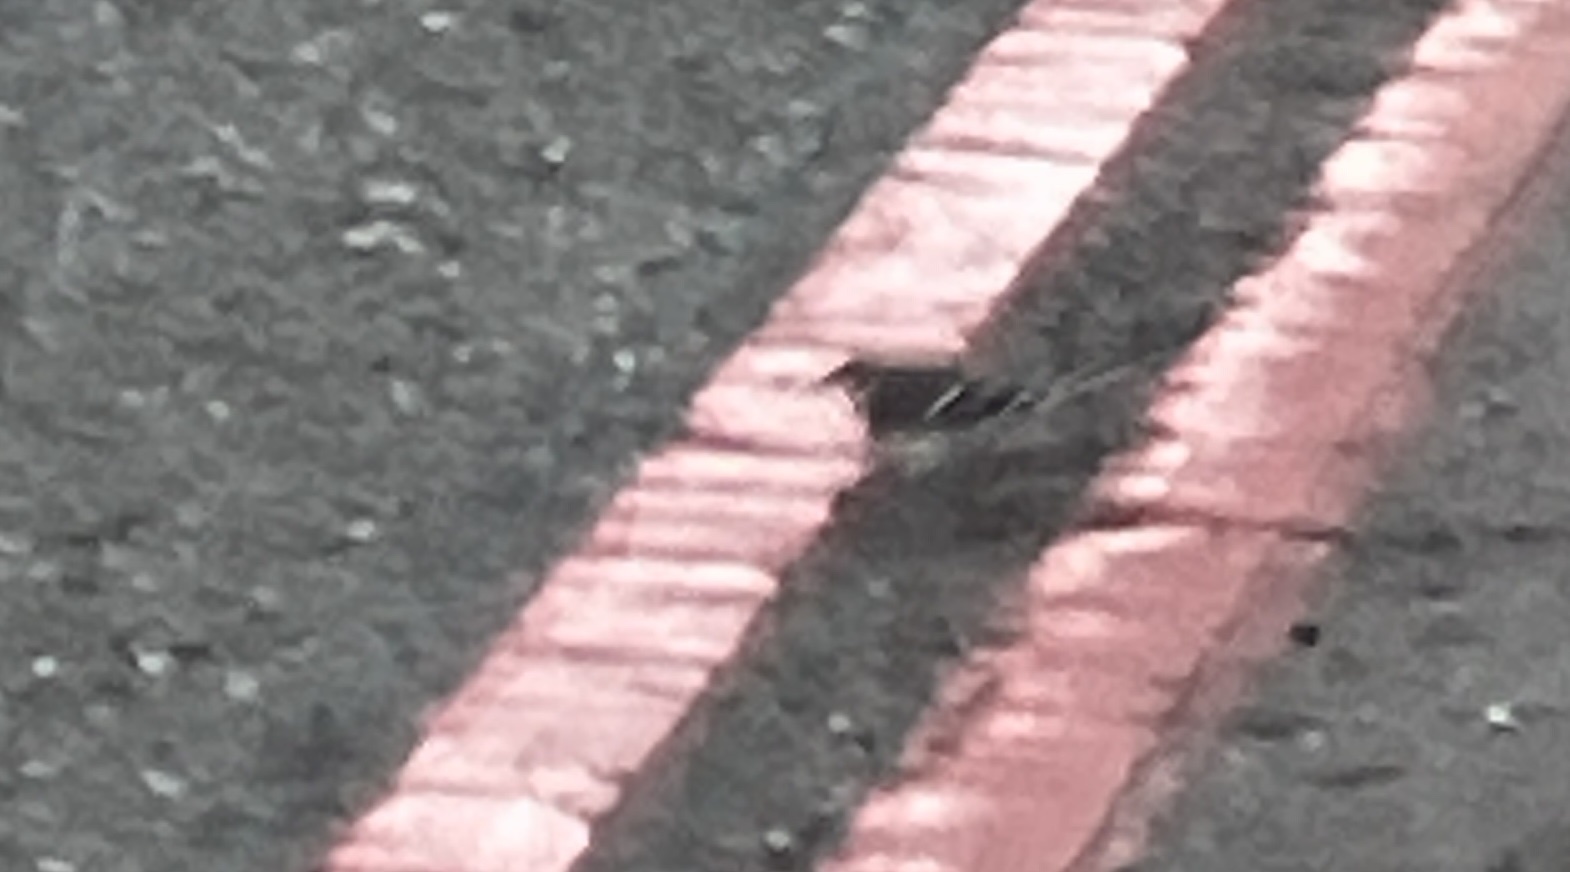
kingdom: Animalia
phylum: Chordata
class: Aves
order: Passeriformes
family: Motacillidae
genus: Motacilla
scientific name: Motacilla alba
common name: White wagtail
